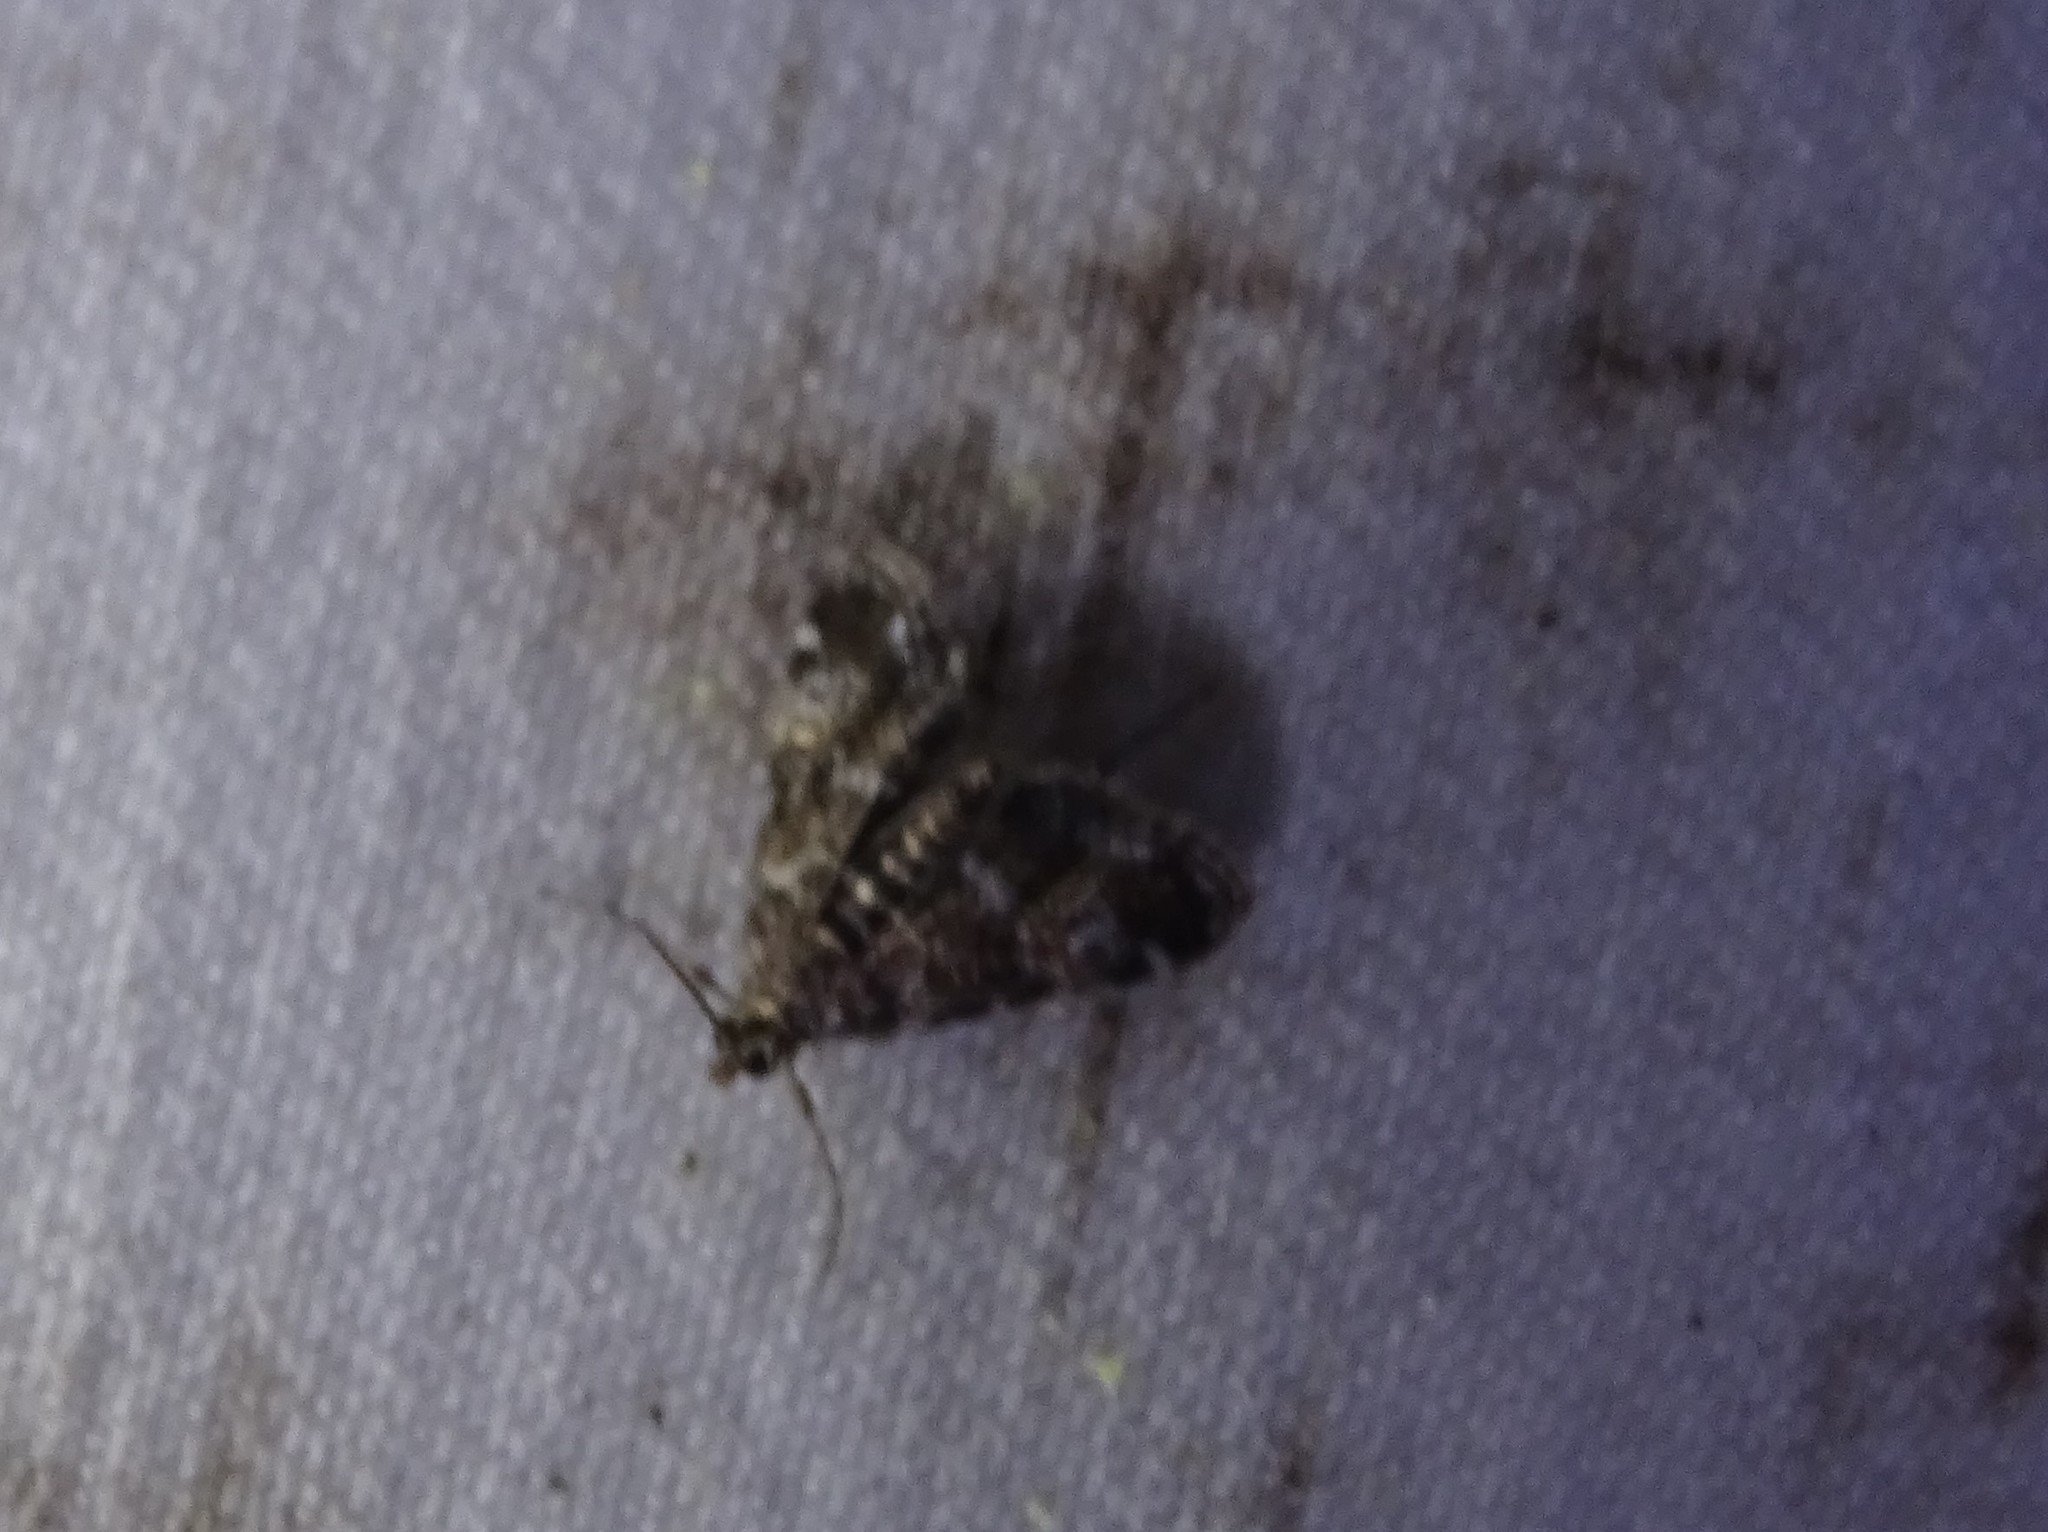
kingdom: Animalia
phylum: Arthropoda
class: Insecta
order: Lepidoptera
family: Crambidae
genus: Elophila
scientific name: Elophila obliteralis
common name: Waterlily leafcutter moth
